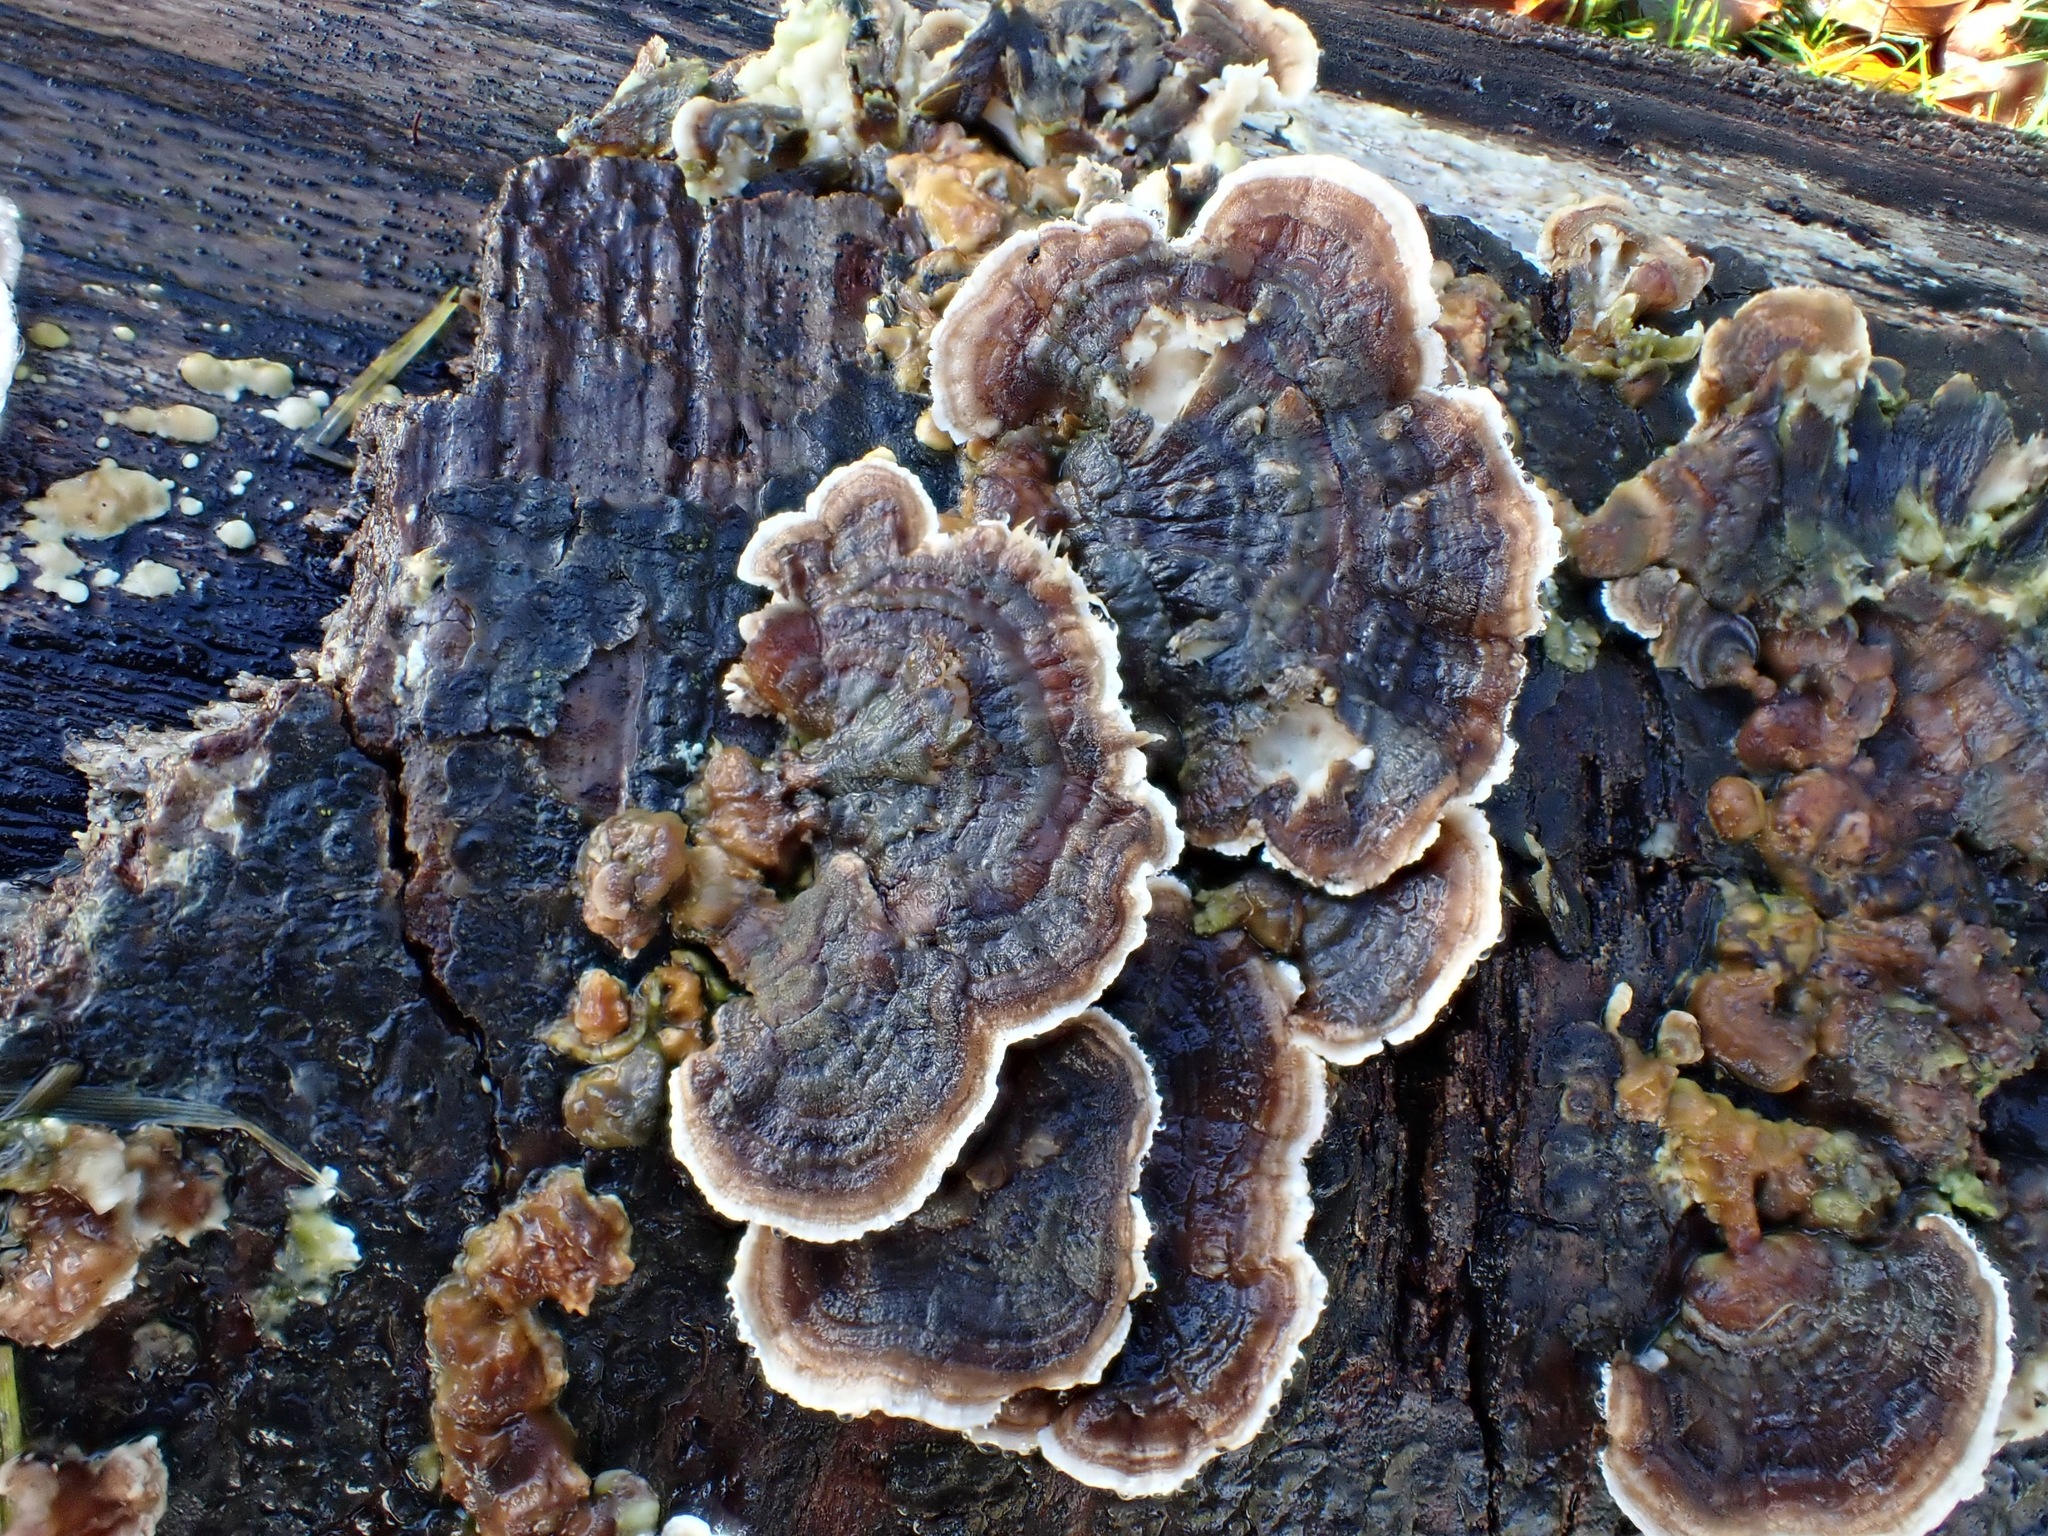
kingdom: Fungi
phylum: Basidiomycota
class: Agaricomycetes
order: Polyporales
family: Polyporaceae
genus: Trametes
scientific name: Trametes versicolor
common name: Turkeytail
